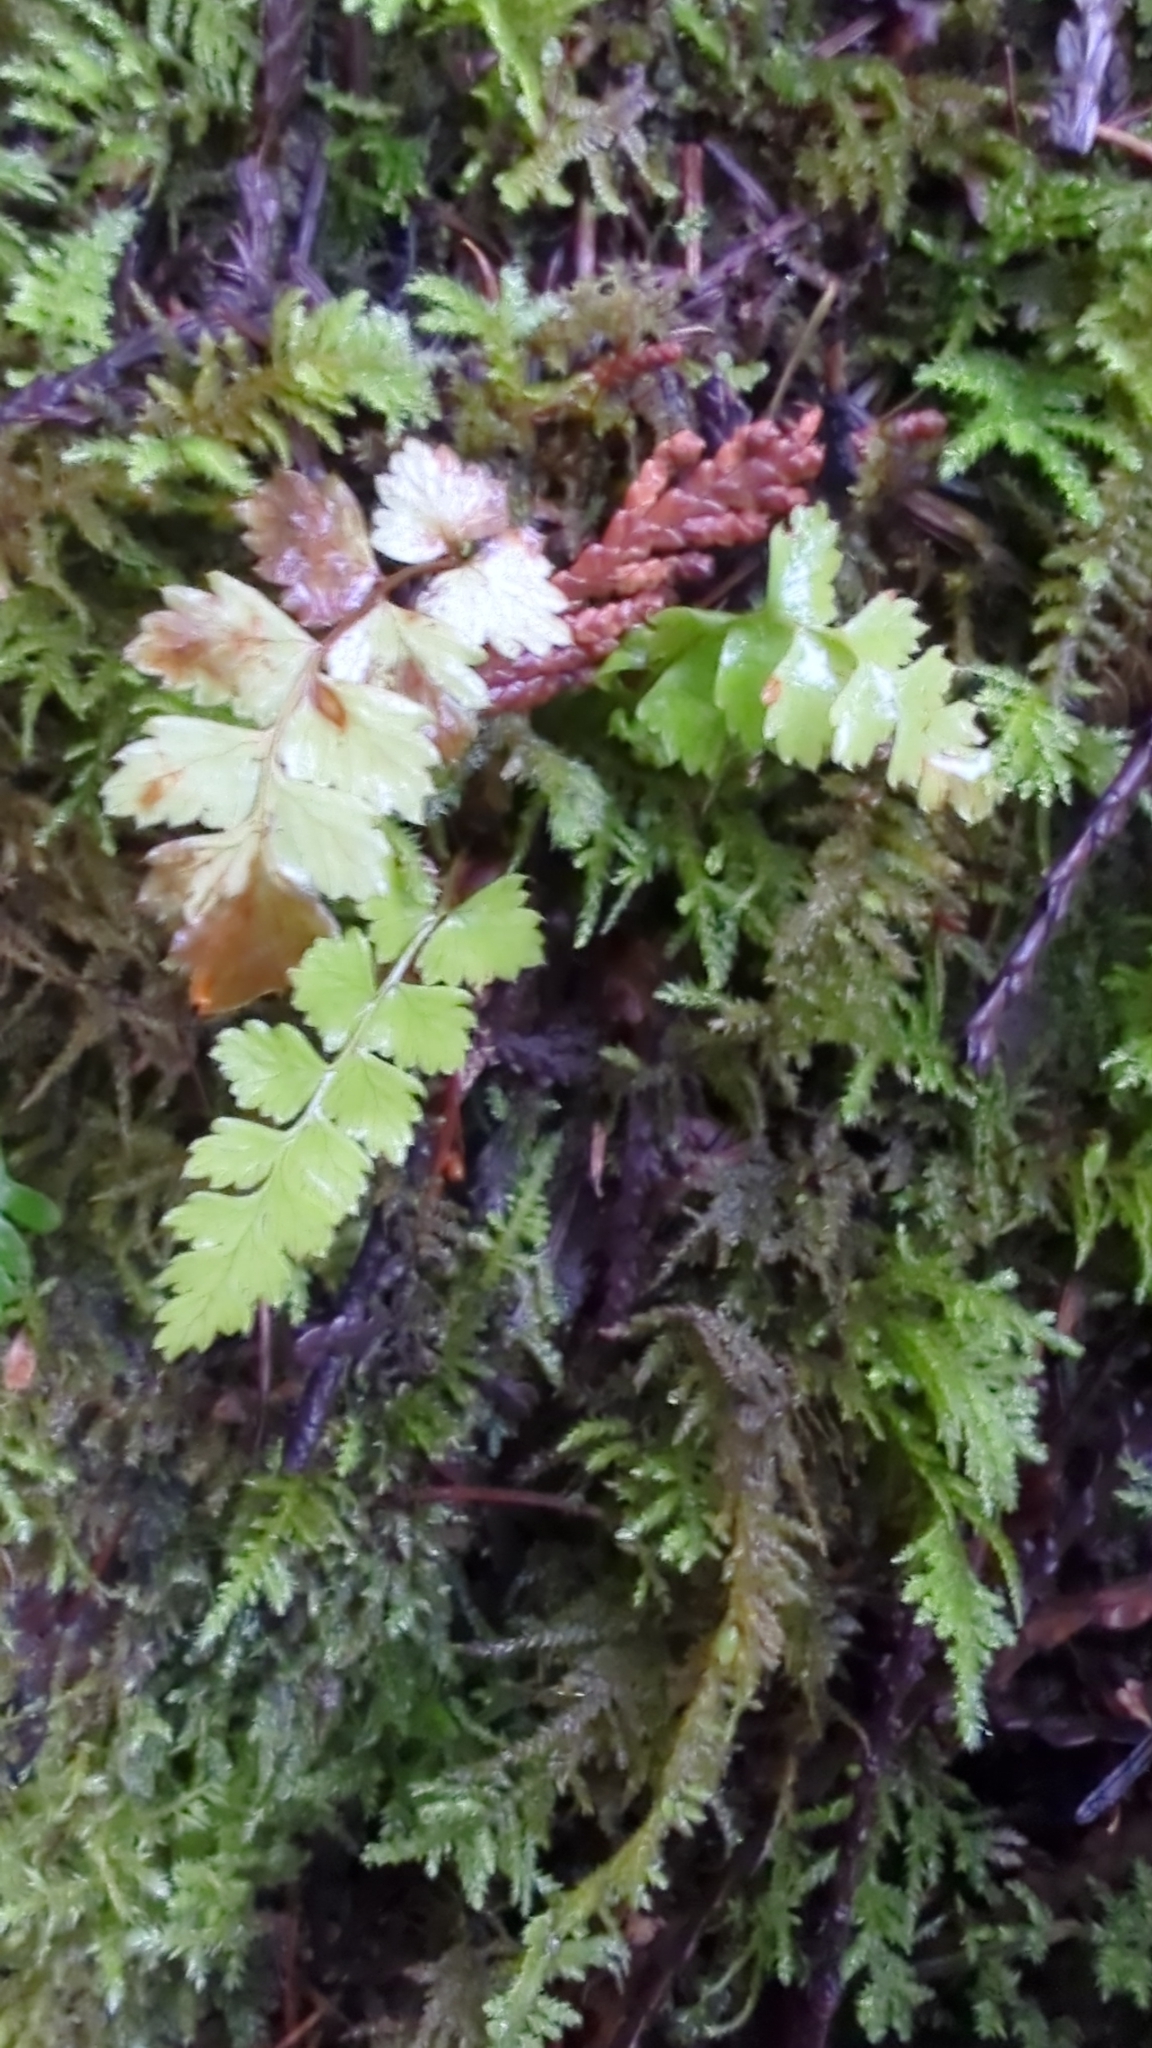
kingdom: Plantae
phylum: Tracheophyta
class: Polypodiopsida
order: Polypodiales
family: Dryopteridaceae
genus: Polystichum
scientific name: Polystichum munitum
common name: Western sword-fern
